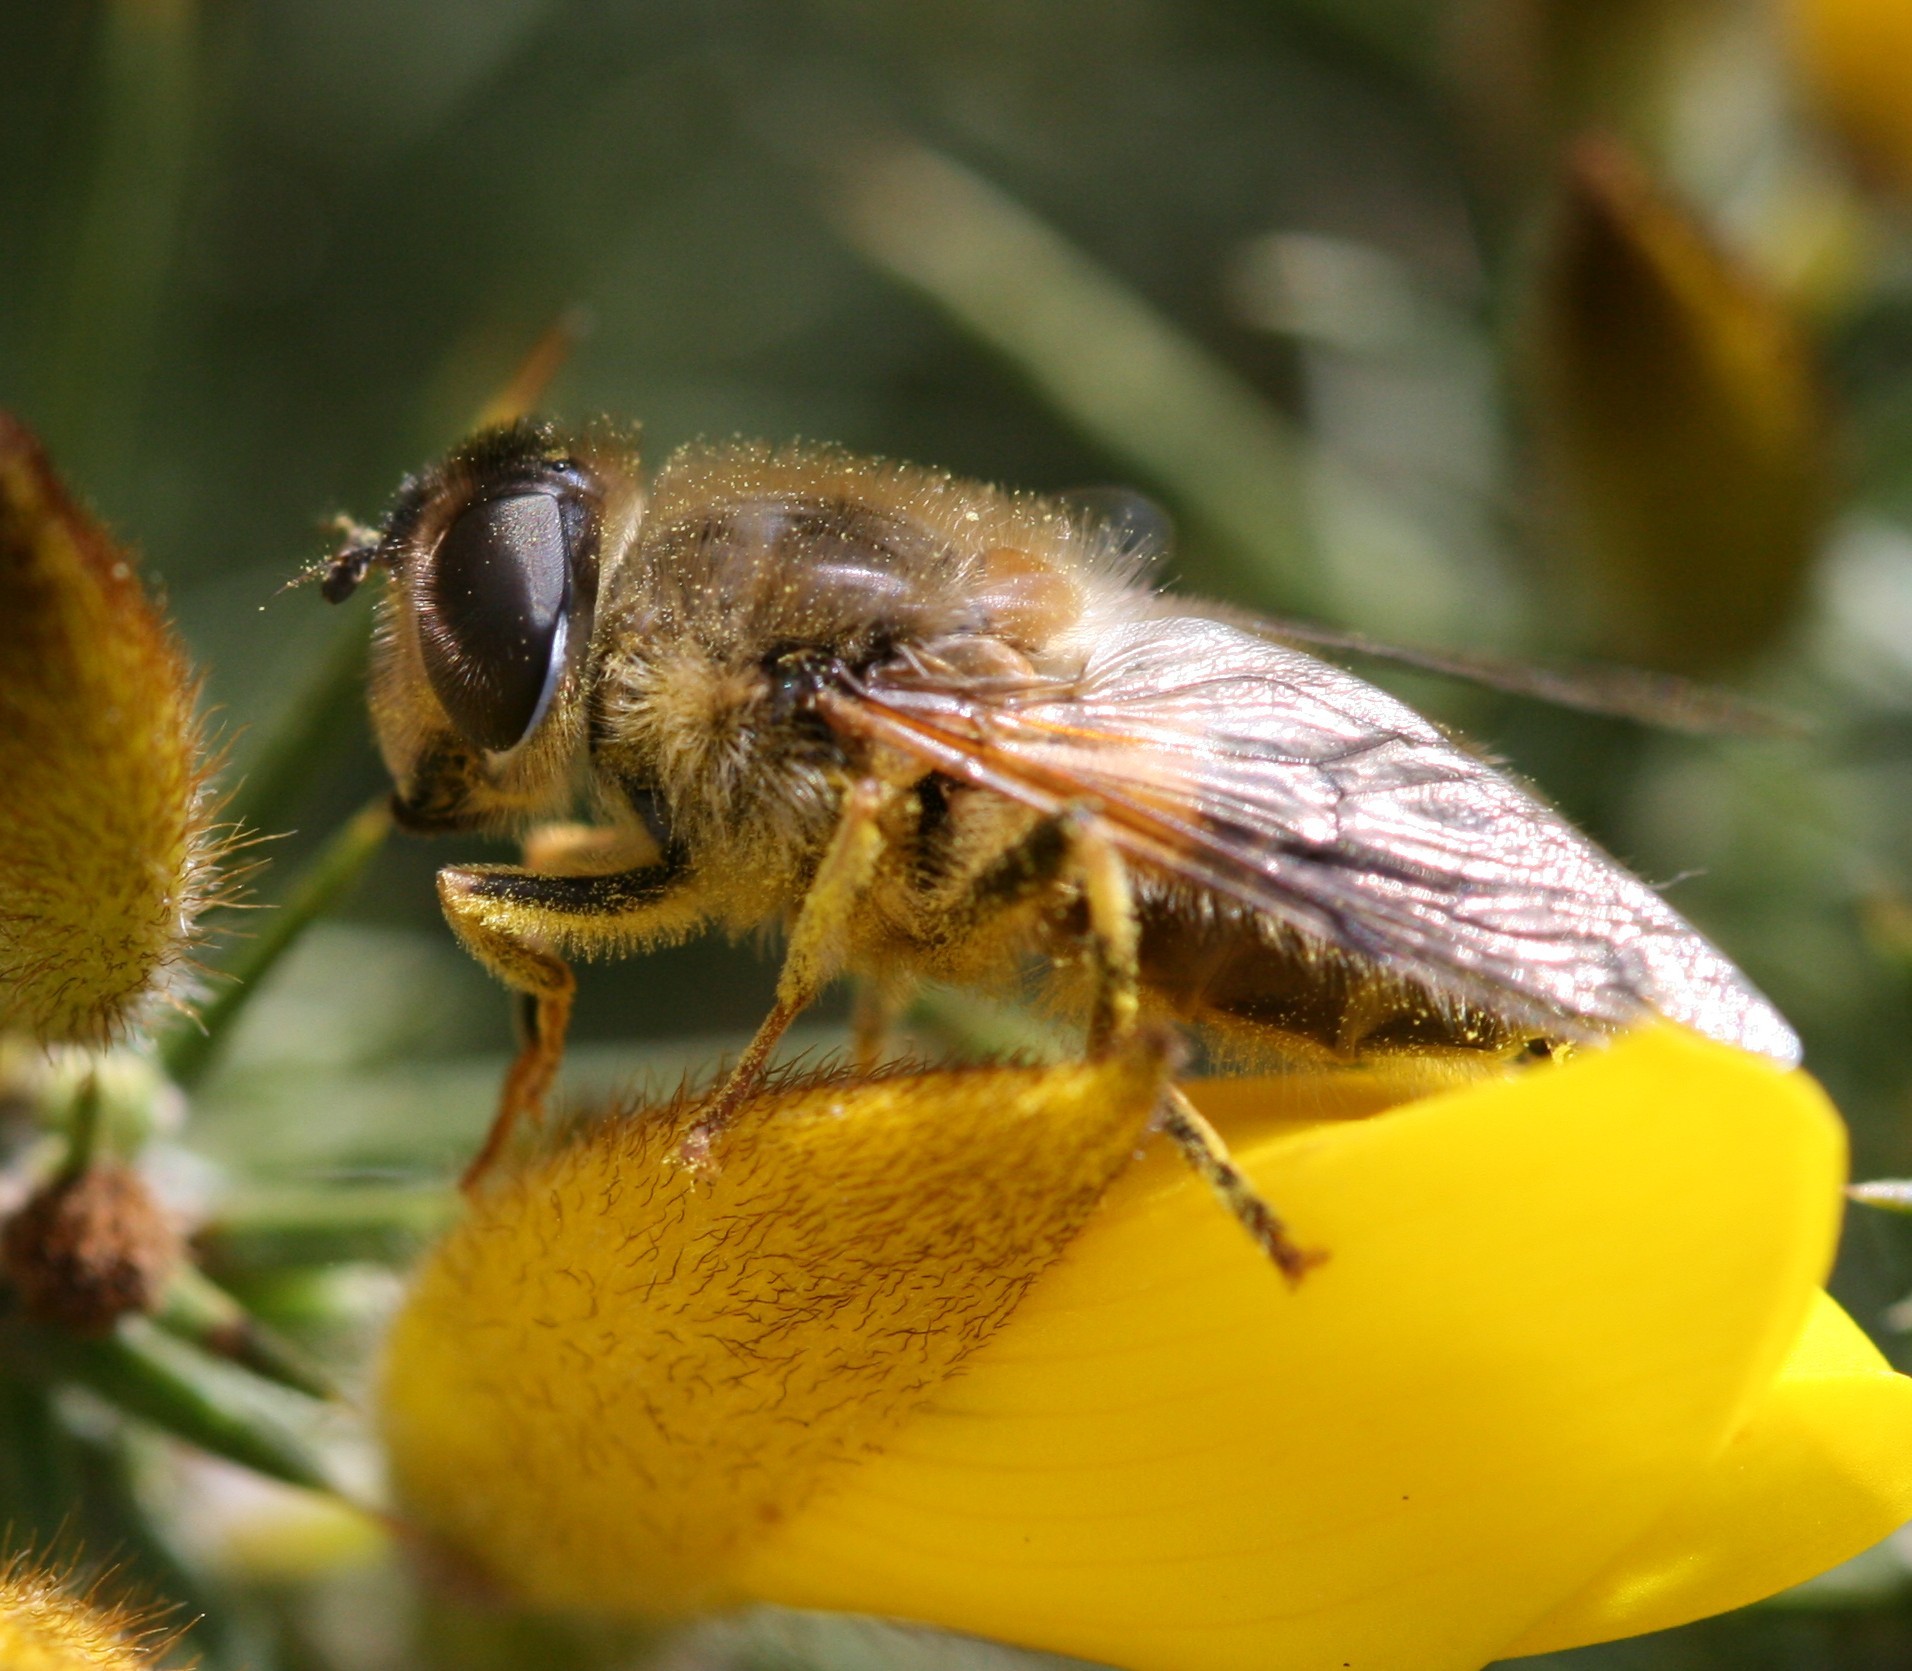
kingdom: Animalia
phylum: Arthropoda
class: Insecta
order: Diptera
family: Syrphidae
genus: Eristalis
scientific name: Eristalis pertinax
